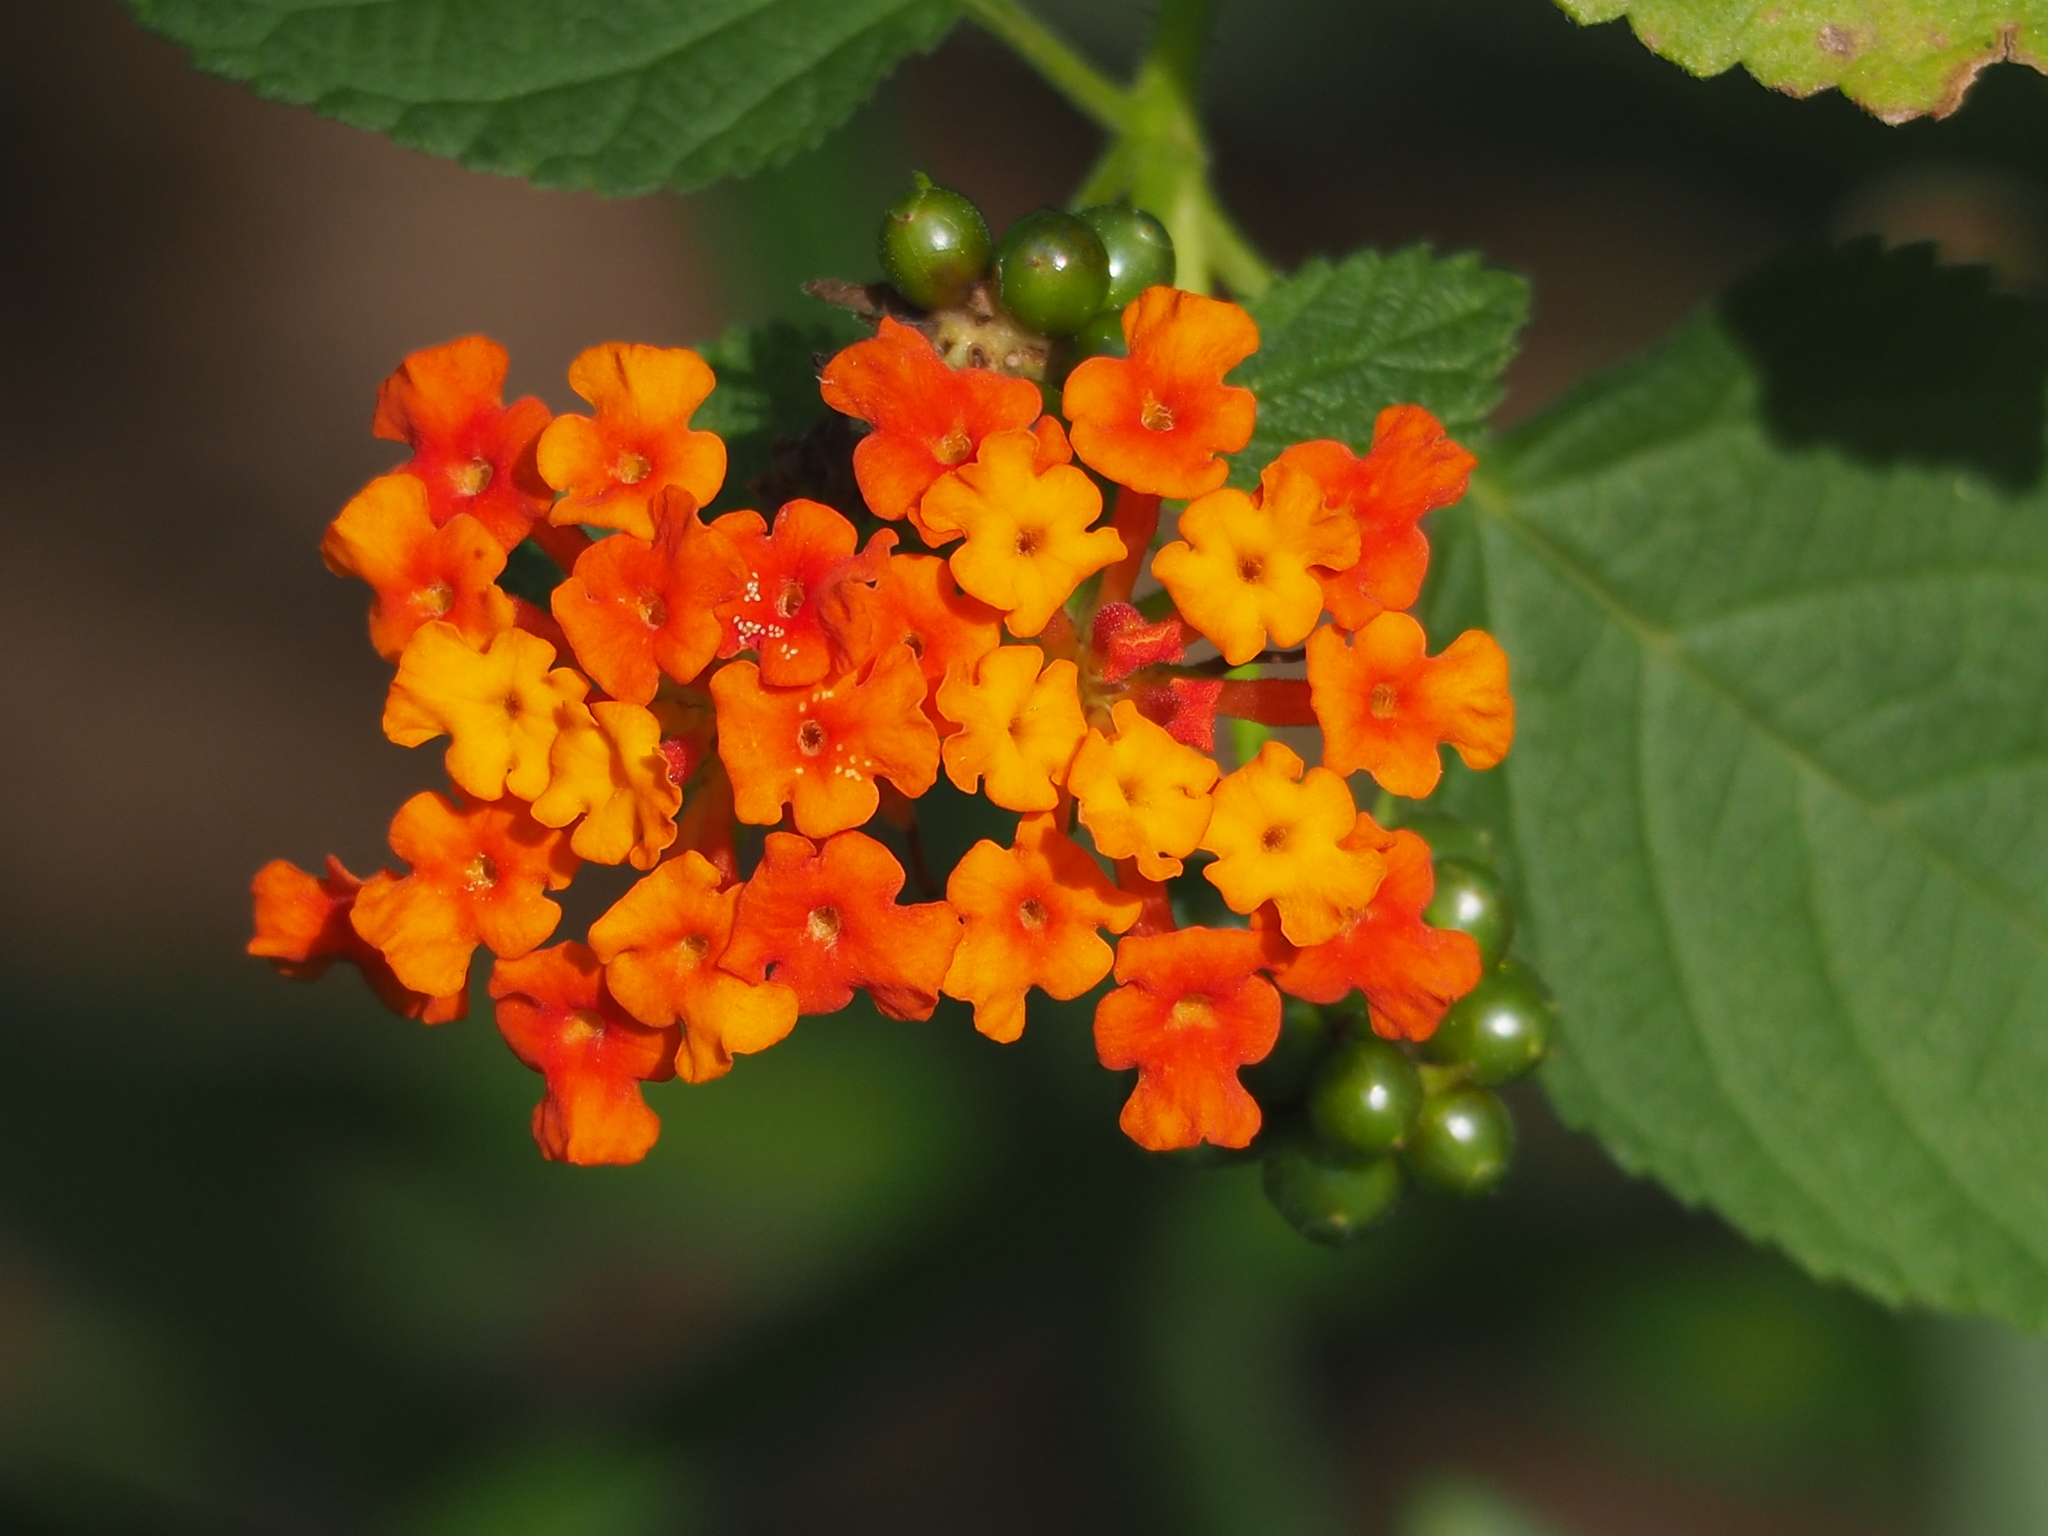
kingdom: Plantae
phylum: Tracheophyta
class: Magnoliopsida
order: Lamiales
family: Verbenaceae
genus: Lantana
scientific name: Lantana camara
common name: Lantana
